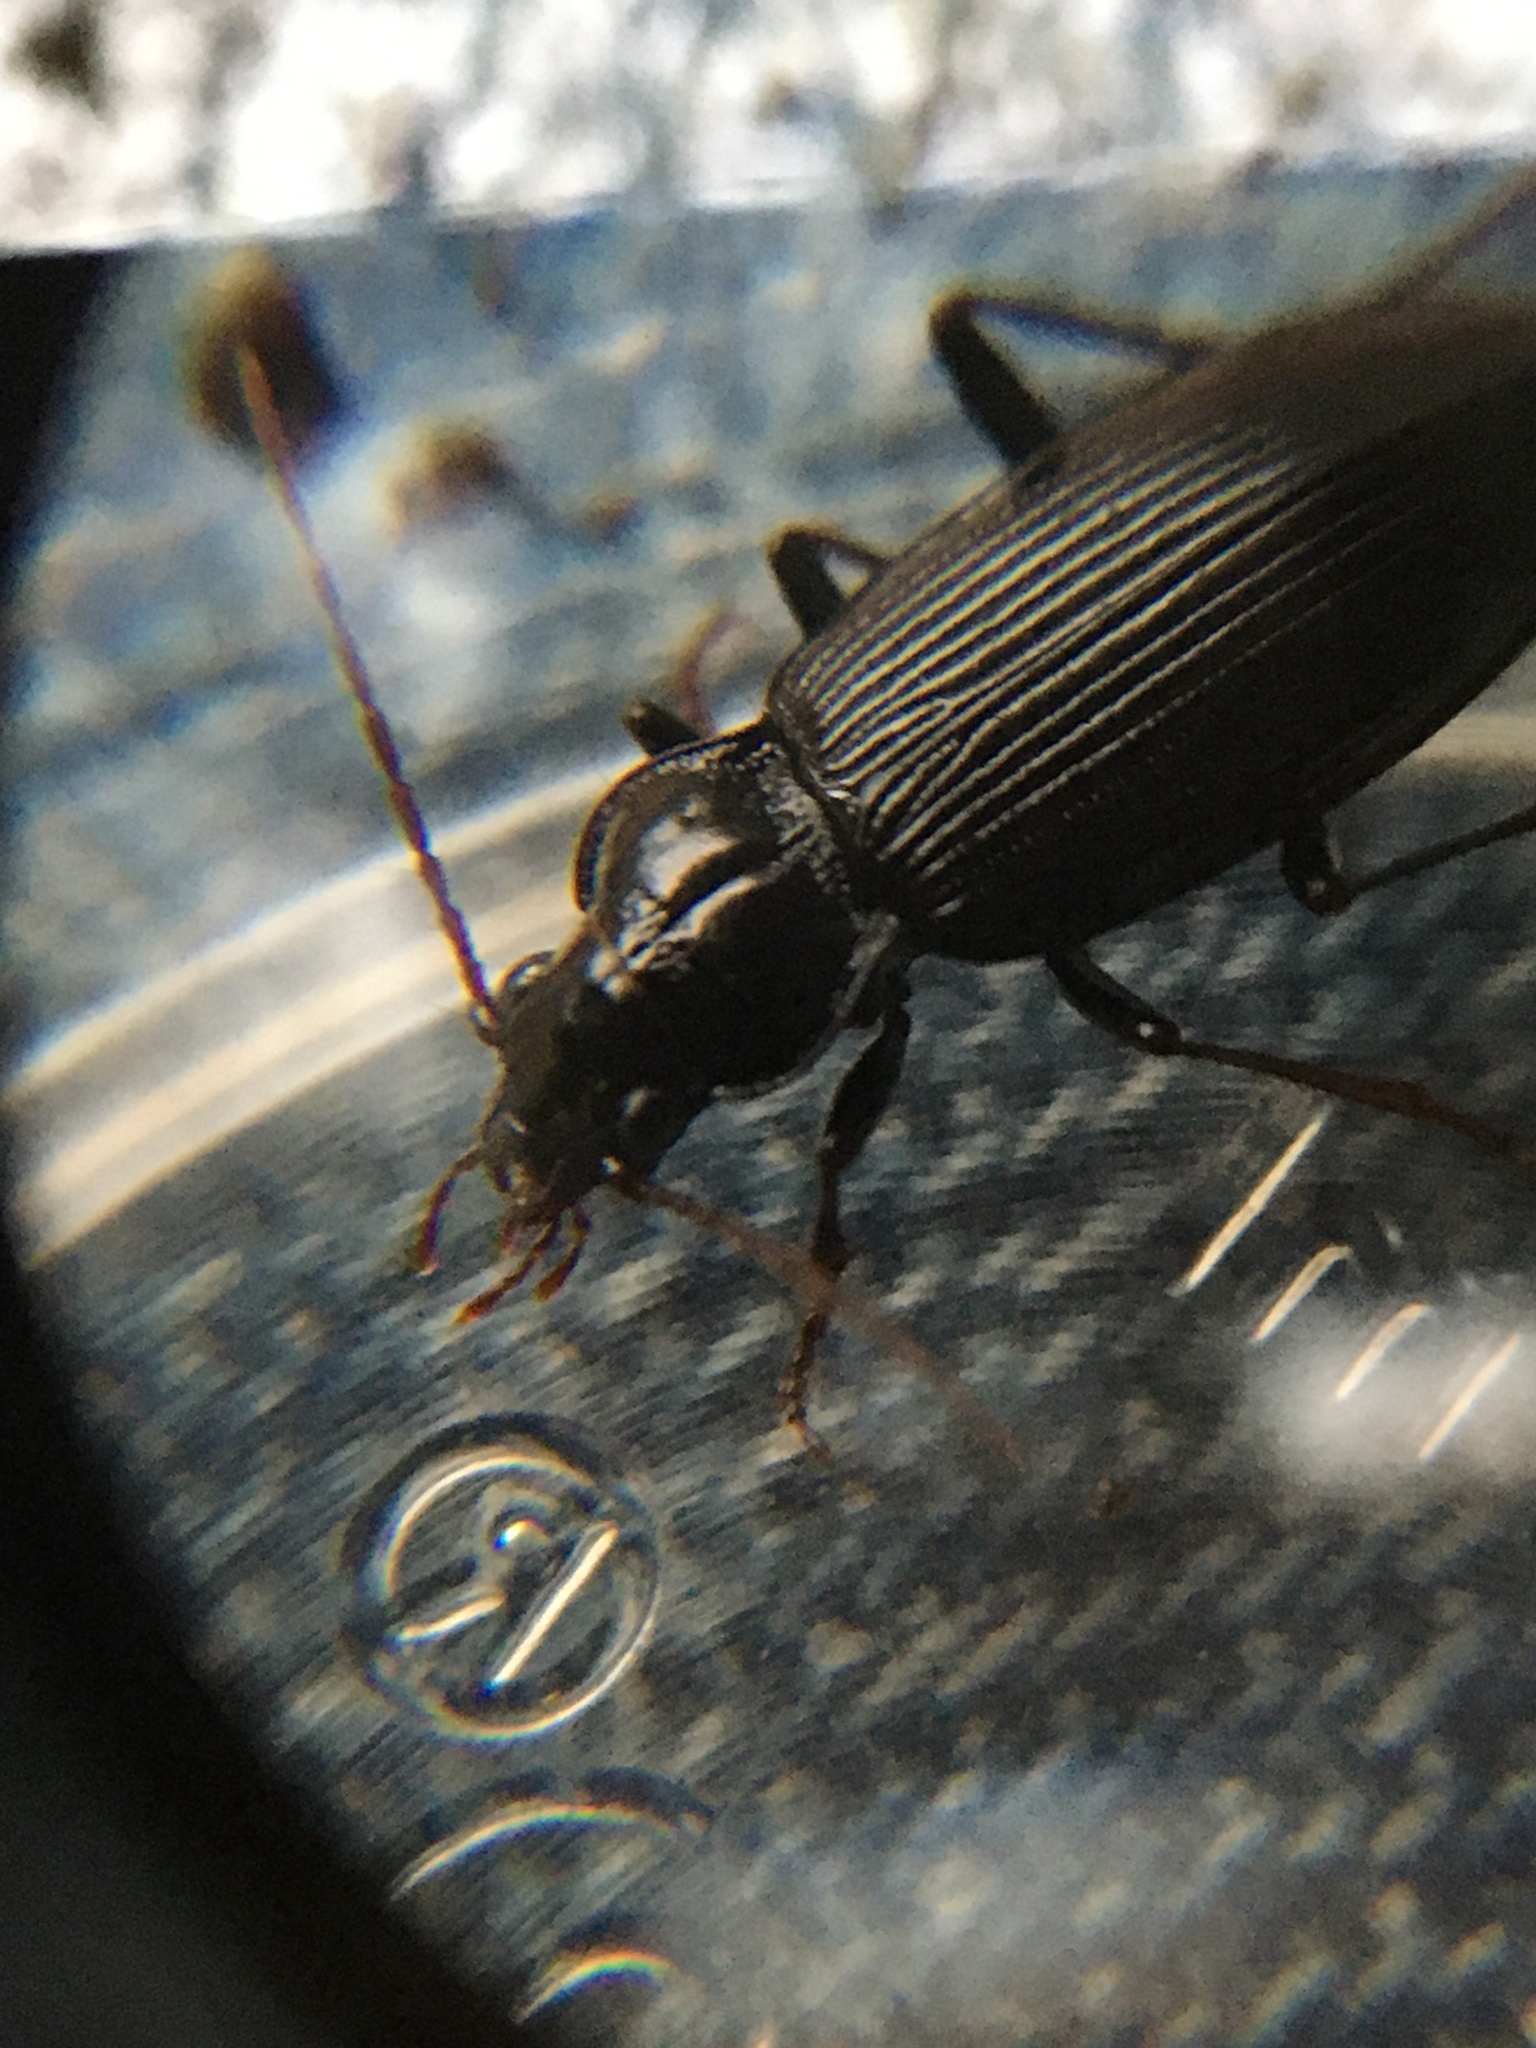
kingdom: Animalia
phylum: Arthropoda
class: Insecta
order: Coleoptera
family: Carabidae
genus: Nebria
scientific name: Nebria brevicollis
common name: Short-necked gazelle beetle
